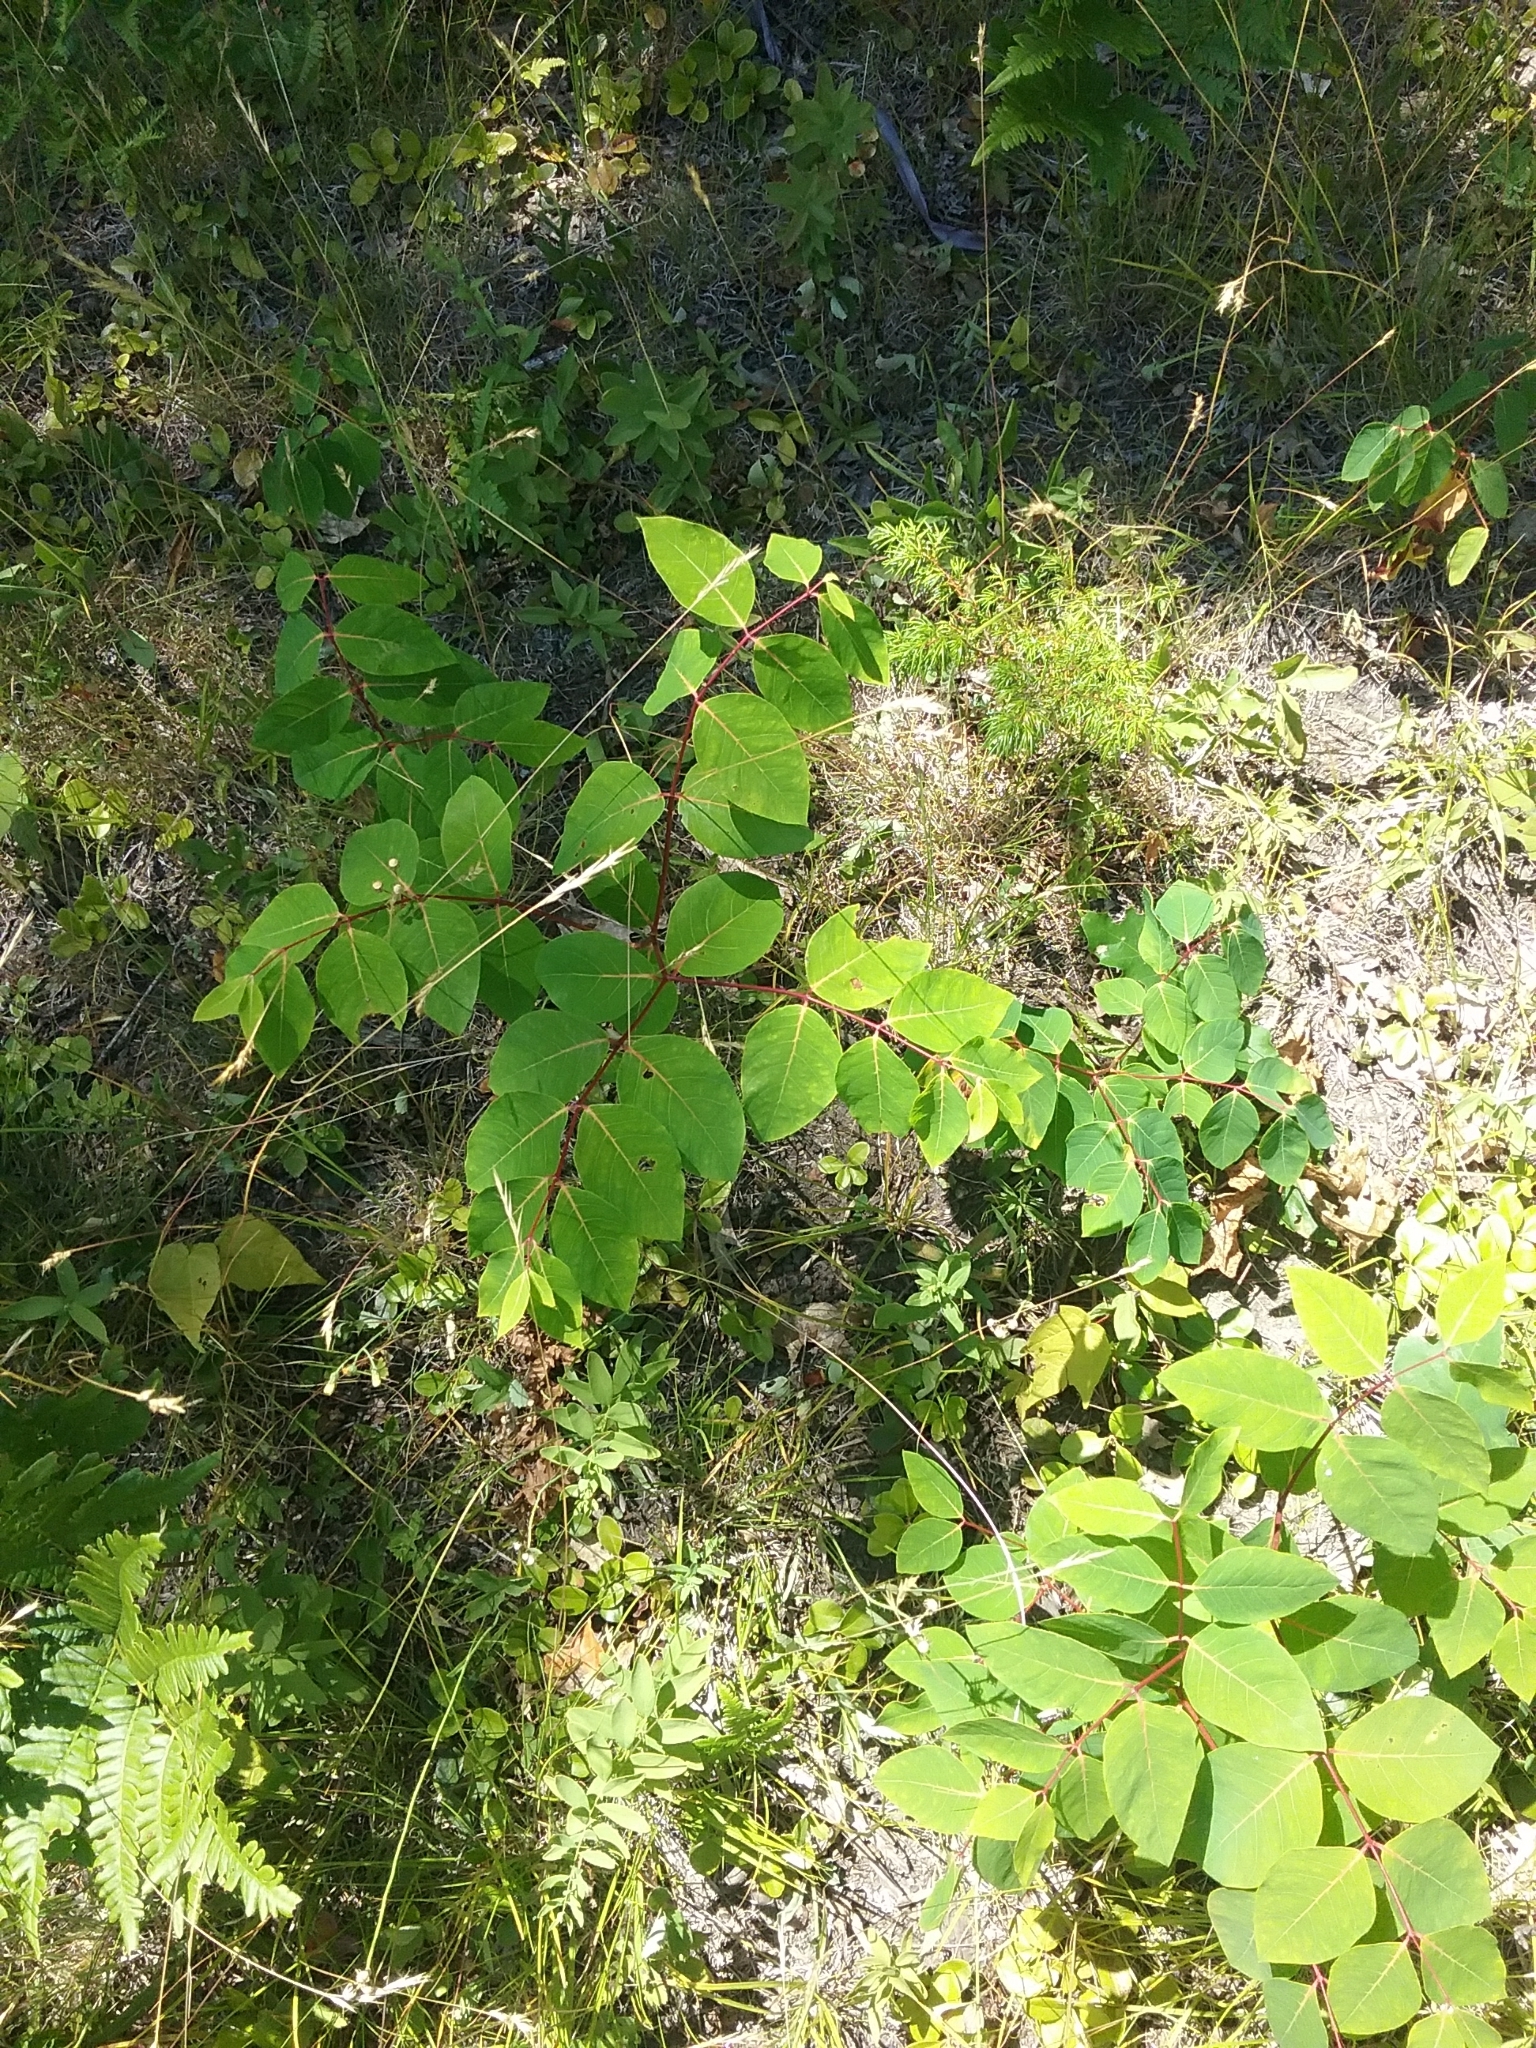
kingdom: Plantae
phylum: Tracheophyta
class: Magnoliopsida
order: Gentianales
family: Apocynaceae
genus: Apocynum
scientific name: Apocynum androsaemifolium
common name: Spreading dogbane
